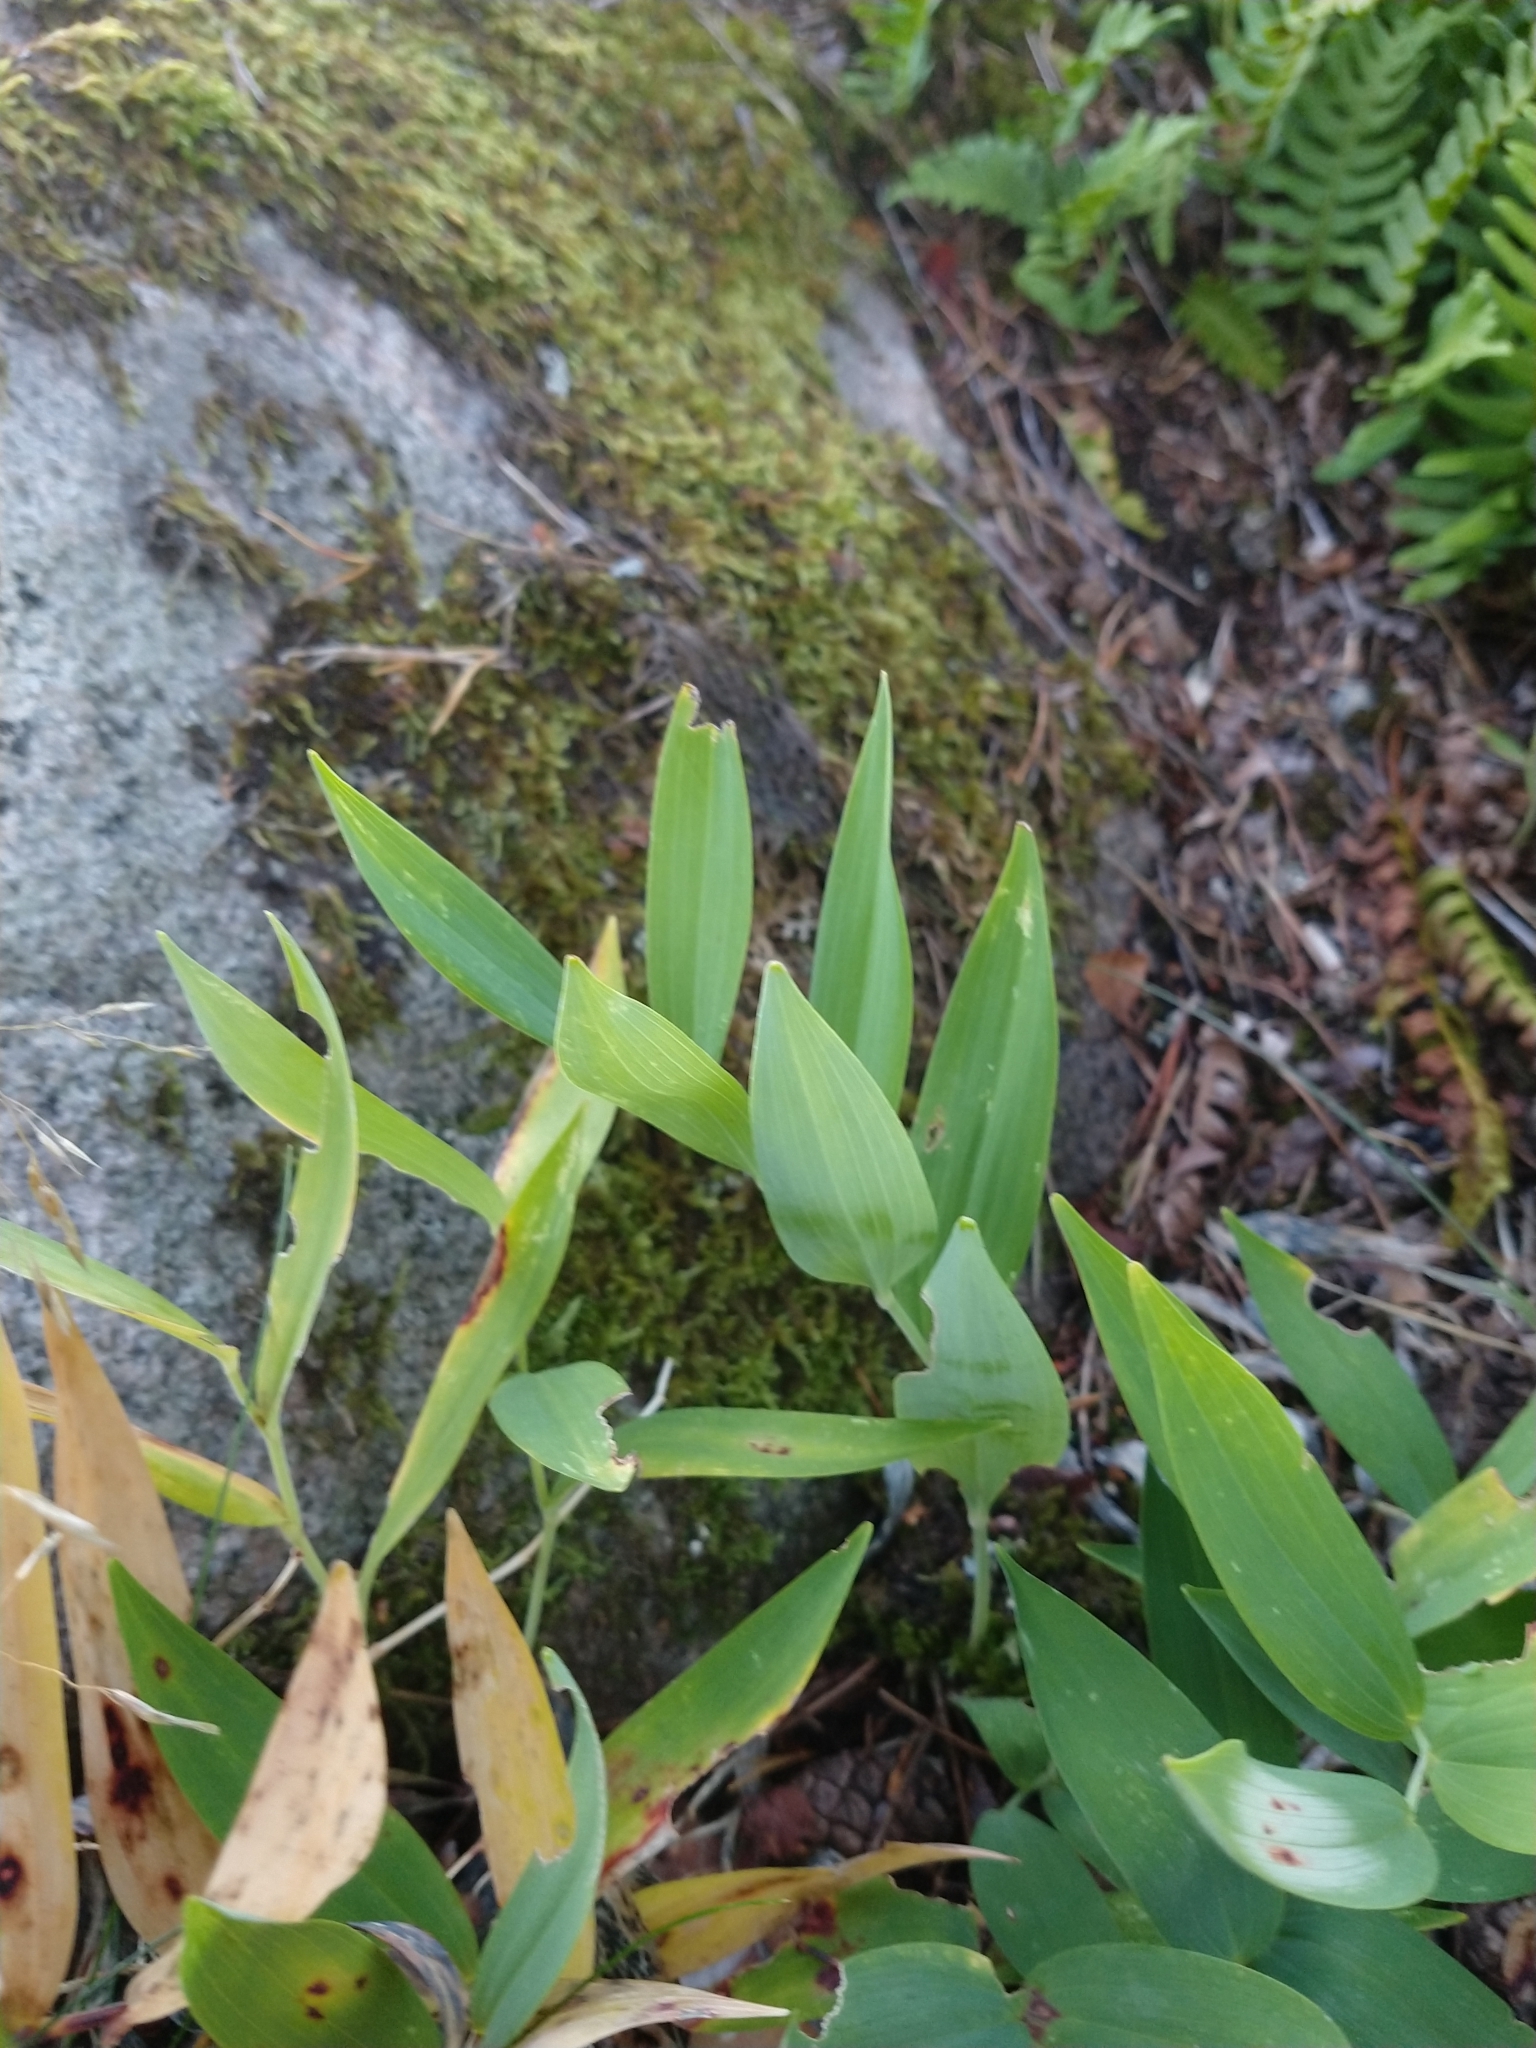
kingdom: Plantae
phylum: Tracheophyta
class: Liliopsida
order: Asparagales
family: Asparagaceae
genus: Polygonatum
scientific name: Polygonatum odoratum
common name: Angular solomon's-seal
